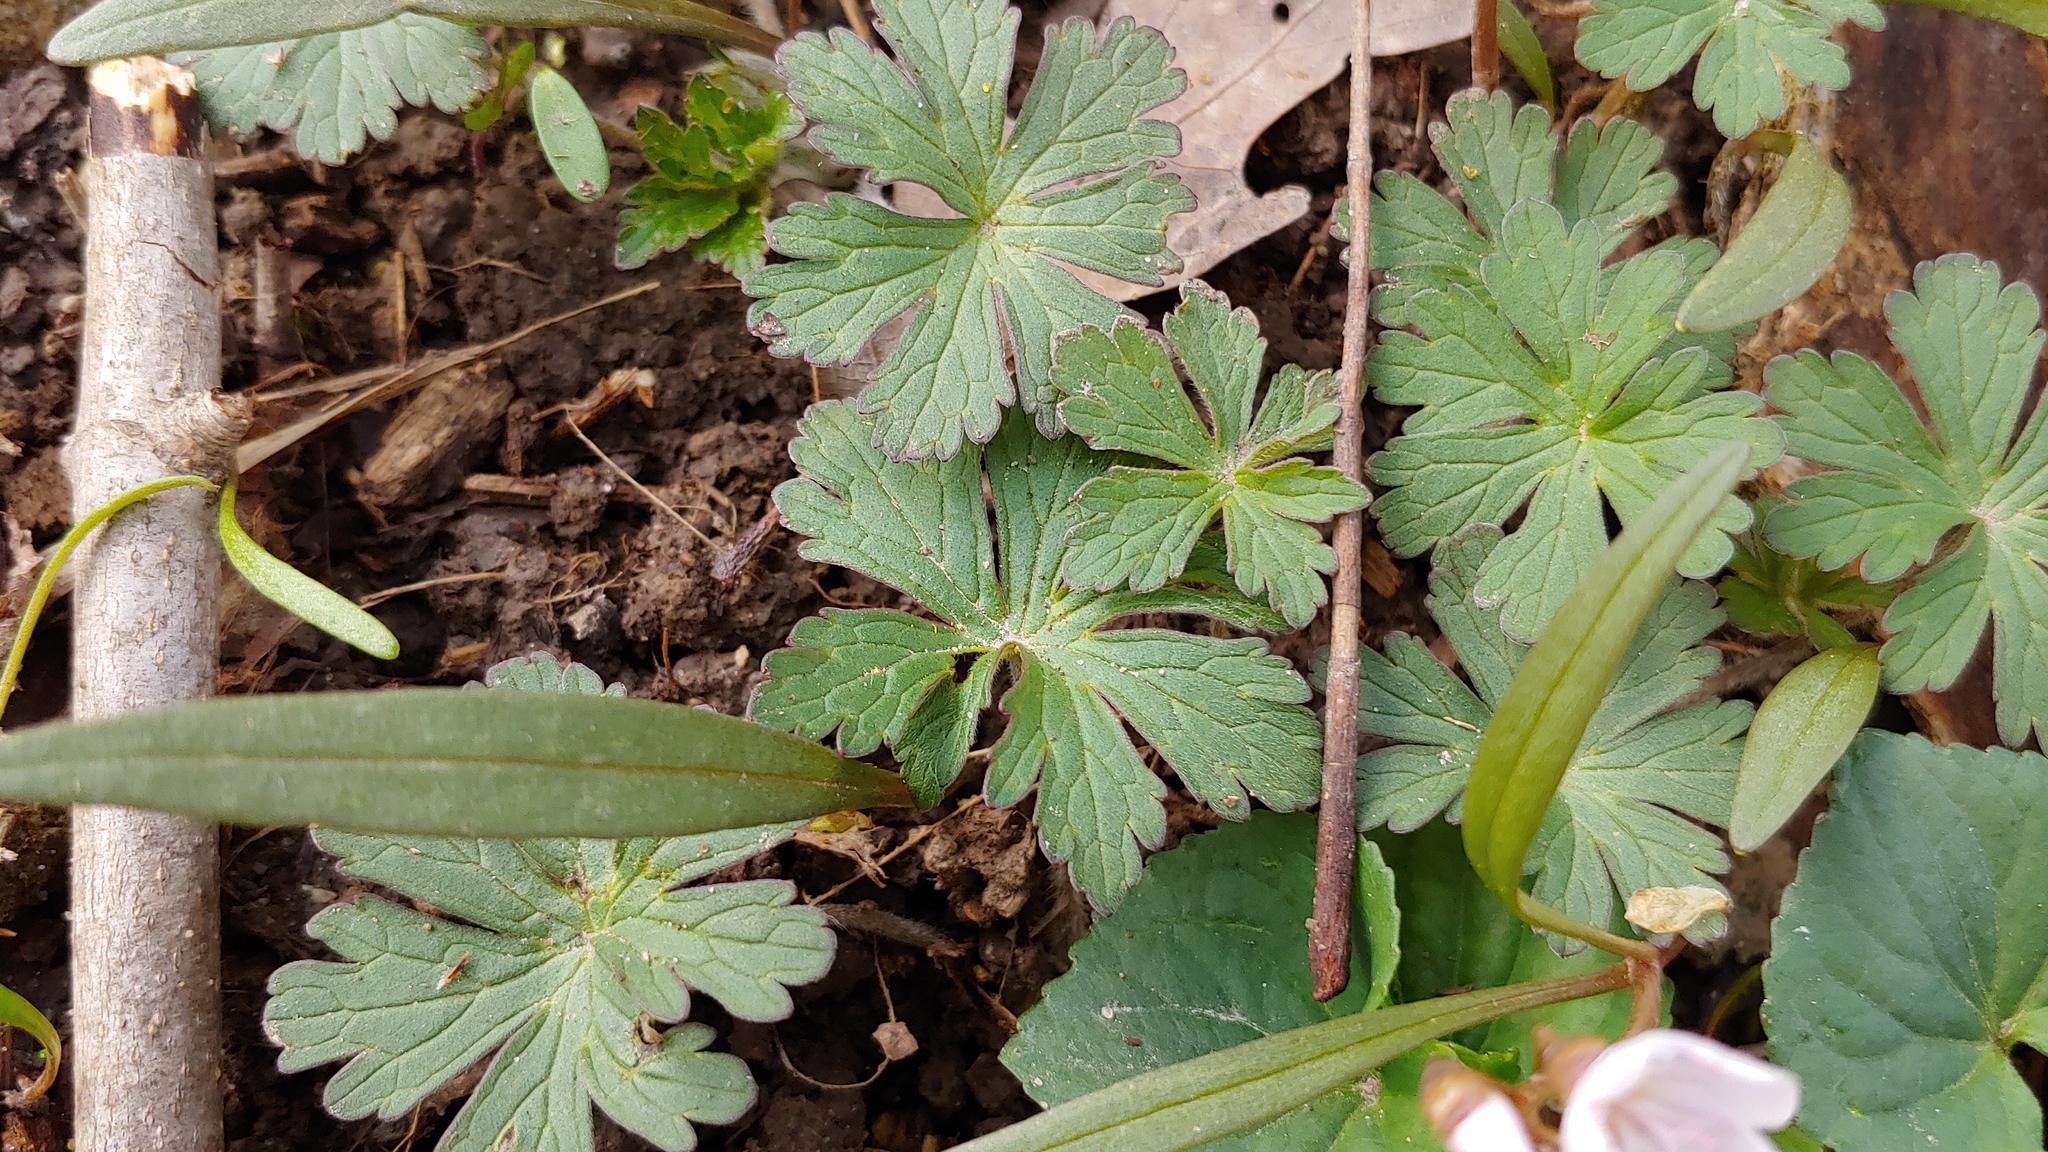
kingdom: Plantae
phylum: Tracheophyta
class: Magnoliopsida
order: Geraniales
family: Geraniaceae
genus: Geranium
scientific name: Geranium maculatum
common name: Spotted geranium
